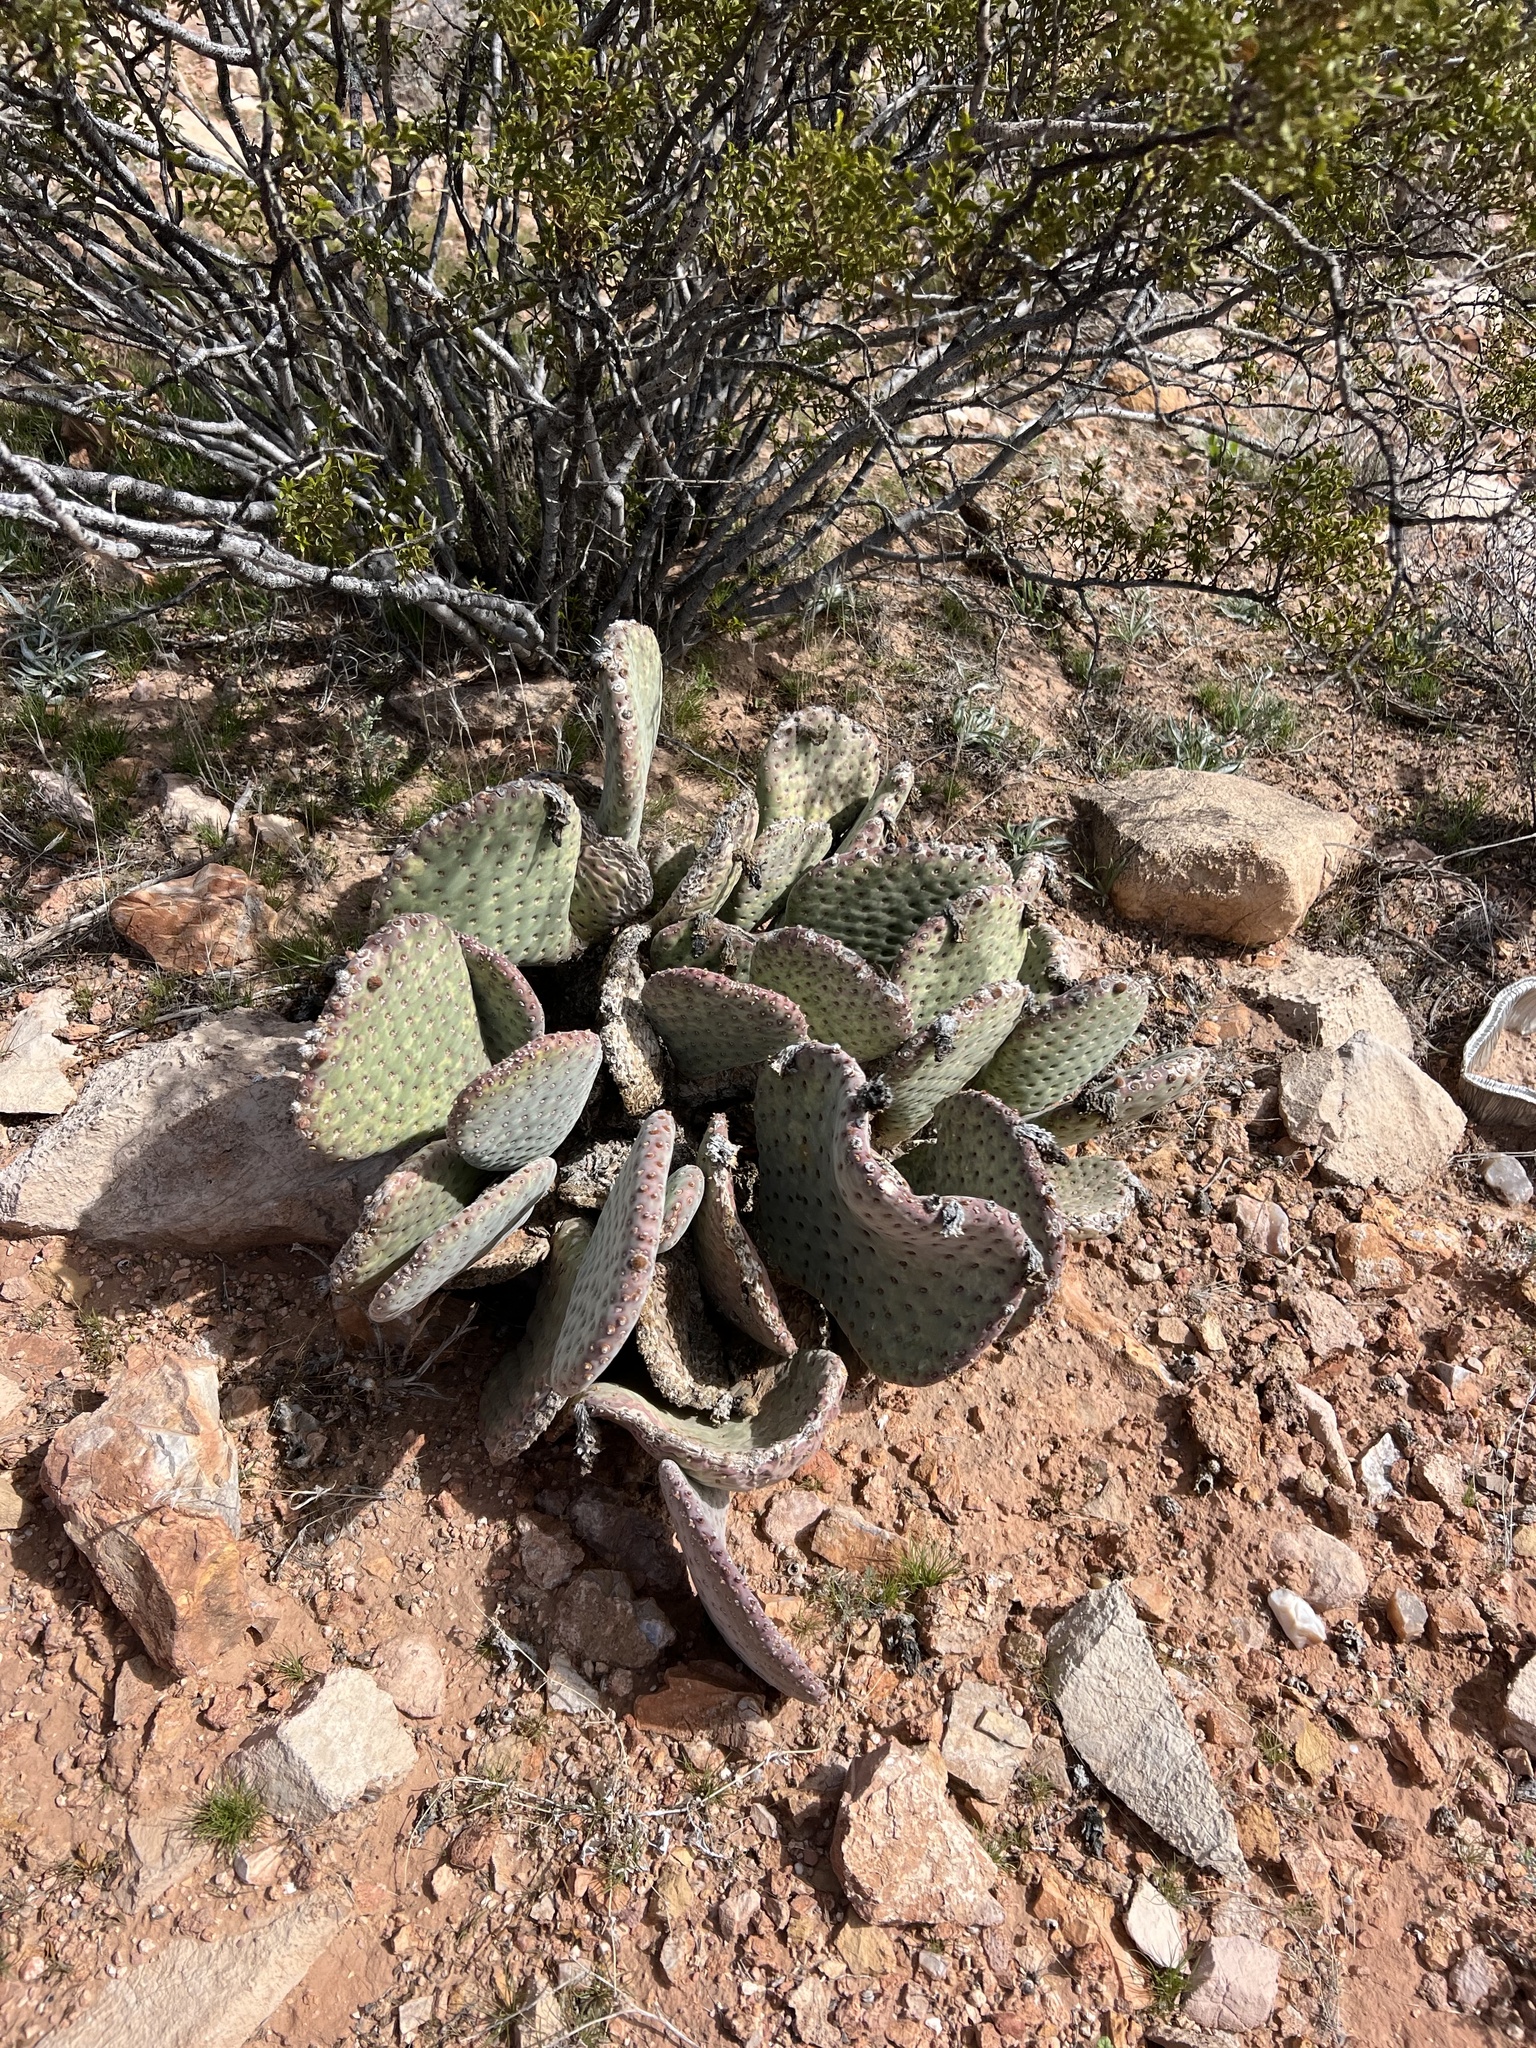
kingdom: Plantae
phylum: Tracheophyta
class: Magnoliopsida
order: Caryophyllales
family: Cactaceae
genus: Opuntia
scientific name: Opuntia basilaris
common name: Beavertail prickly-pear
